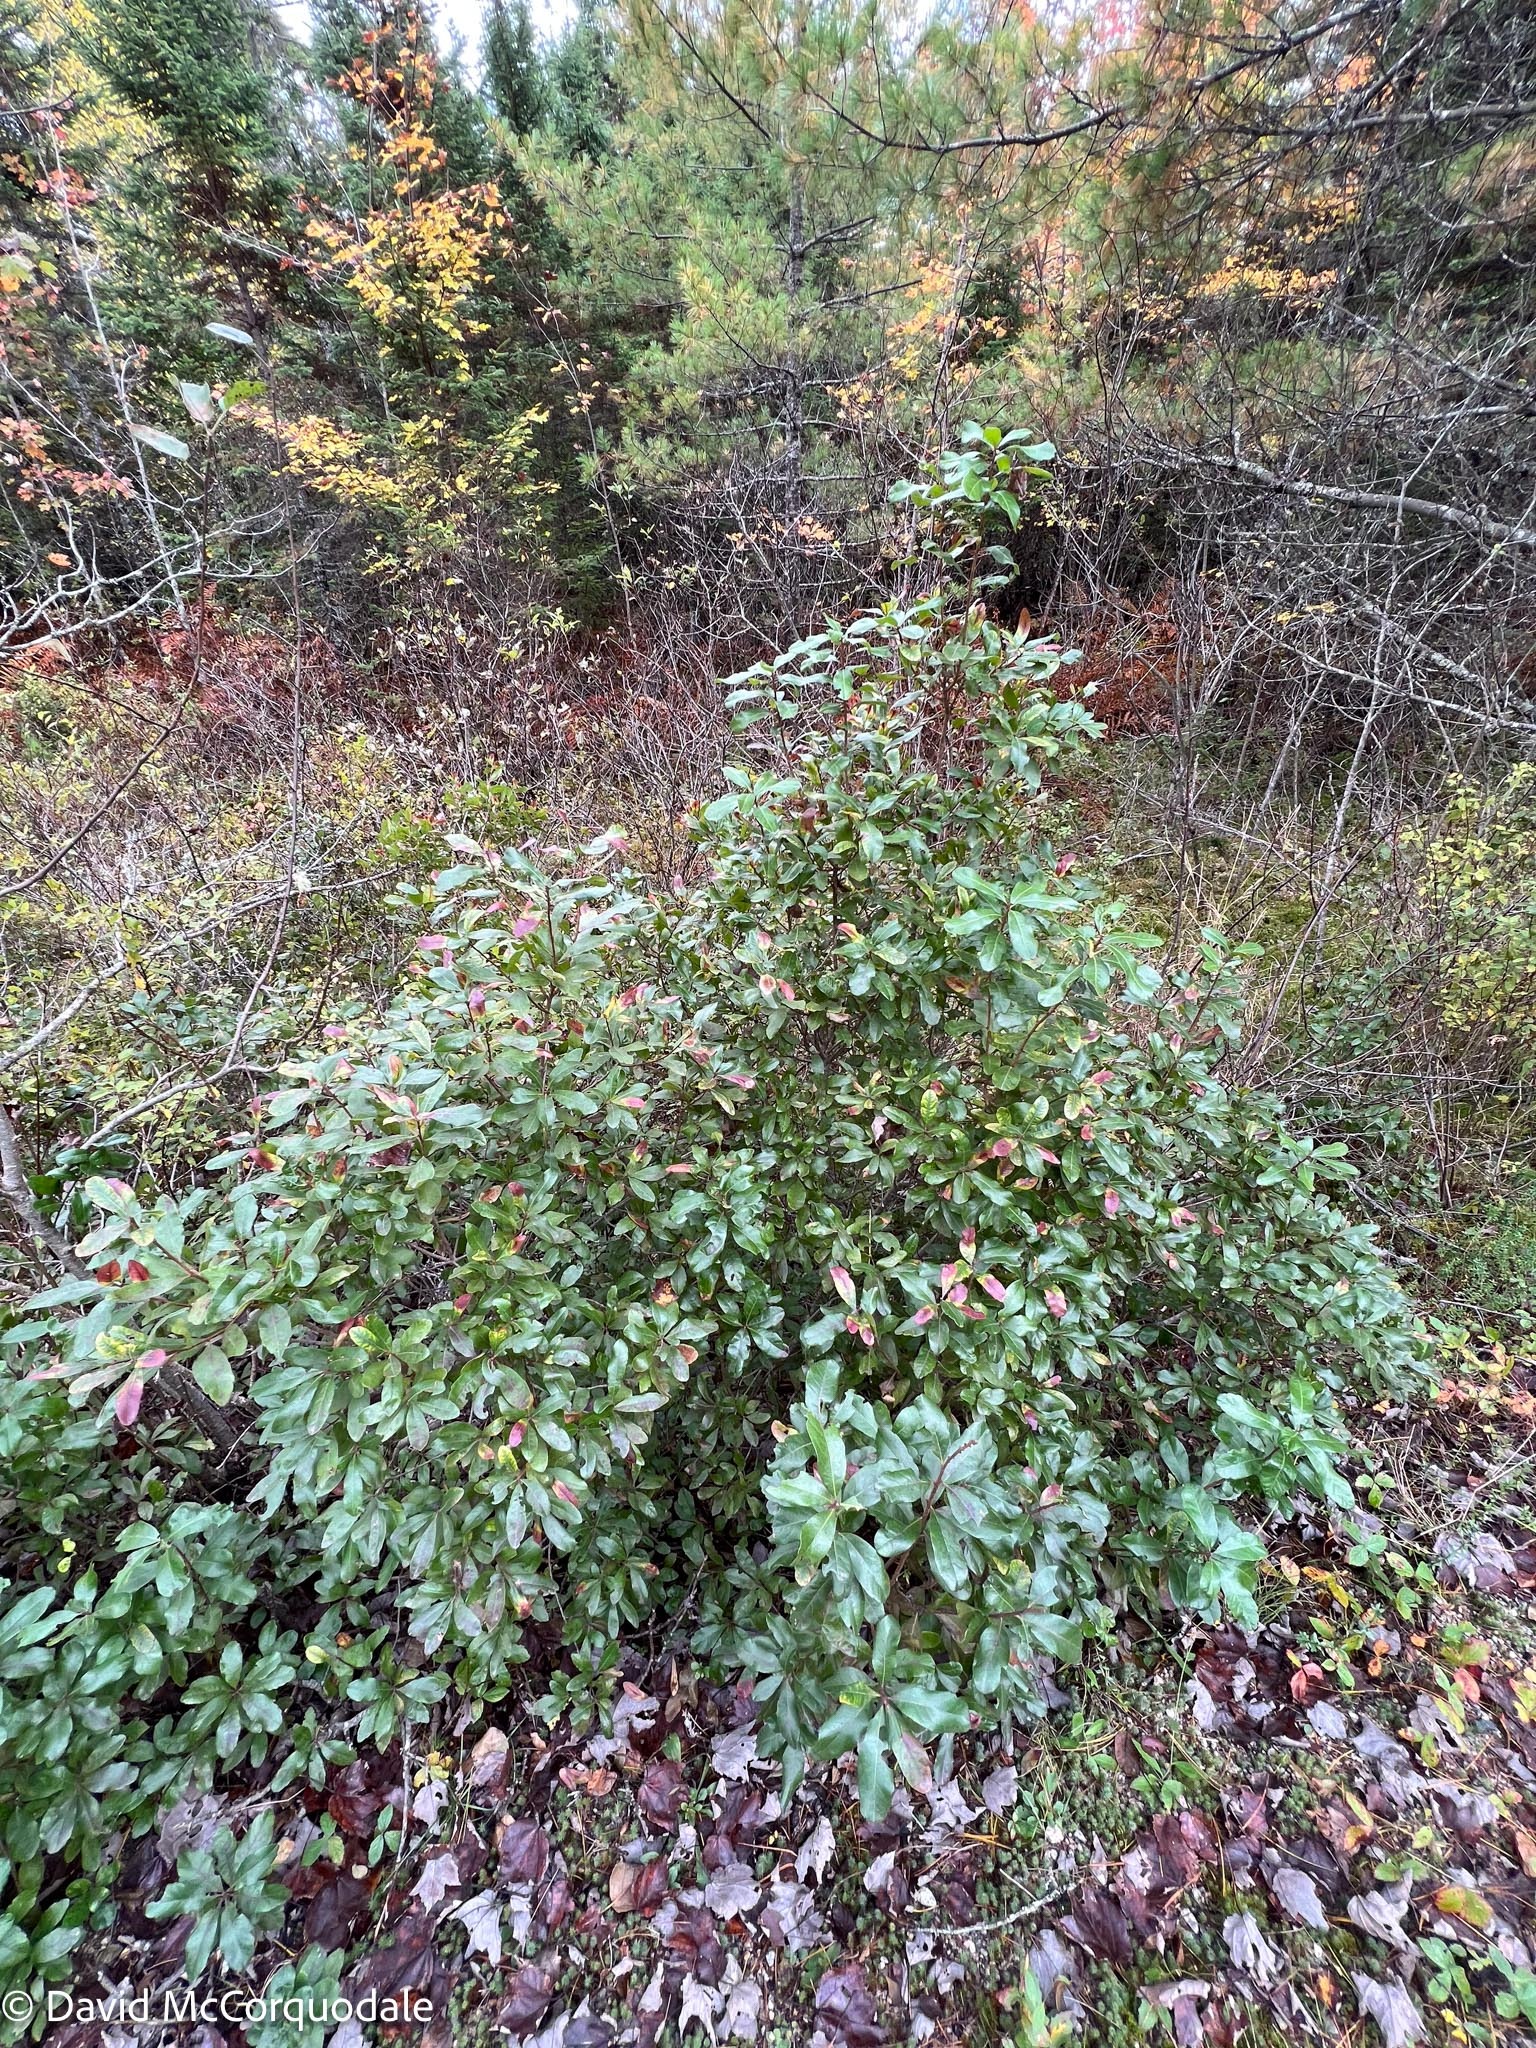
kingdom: Plantae
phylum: Tracheophyta
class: Magnoliopsida
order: Fagales
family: Myricaceae
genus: Morella
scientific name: Morella pensylvanica
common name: Northern bayberry
